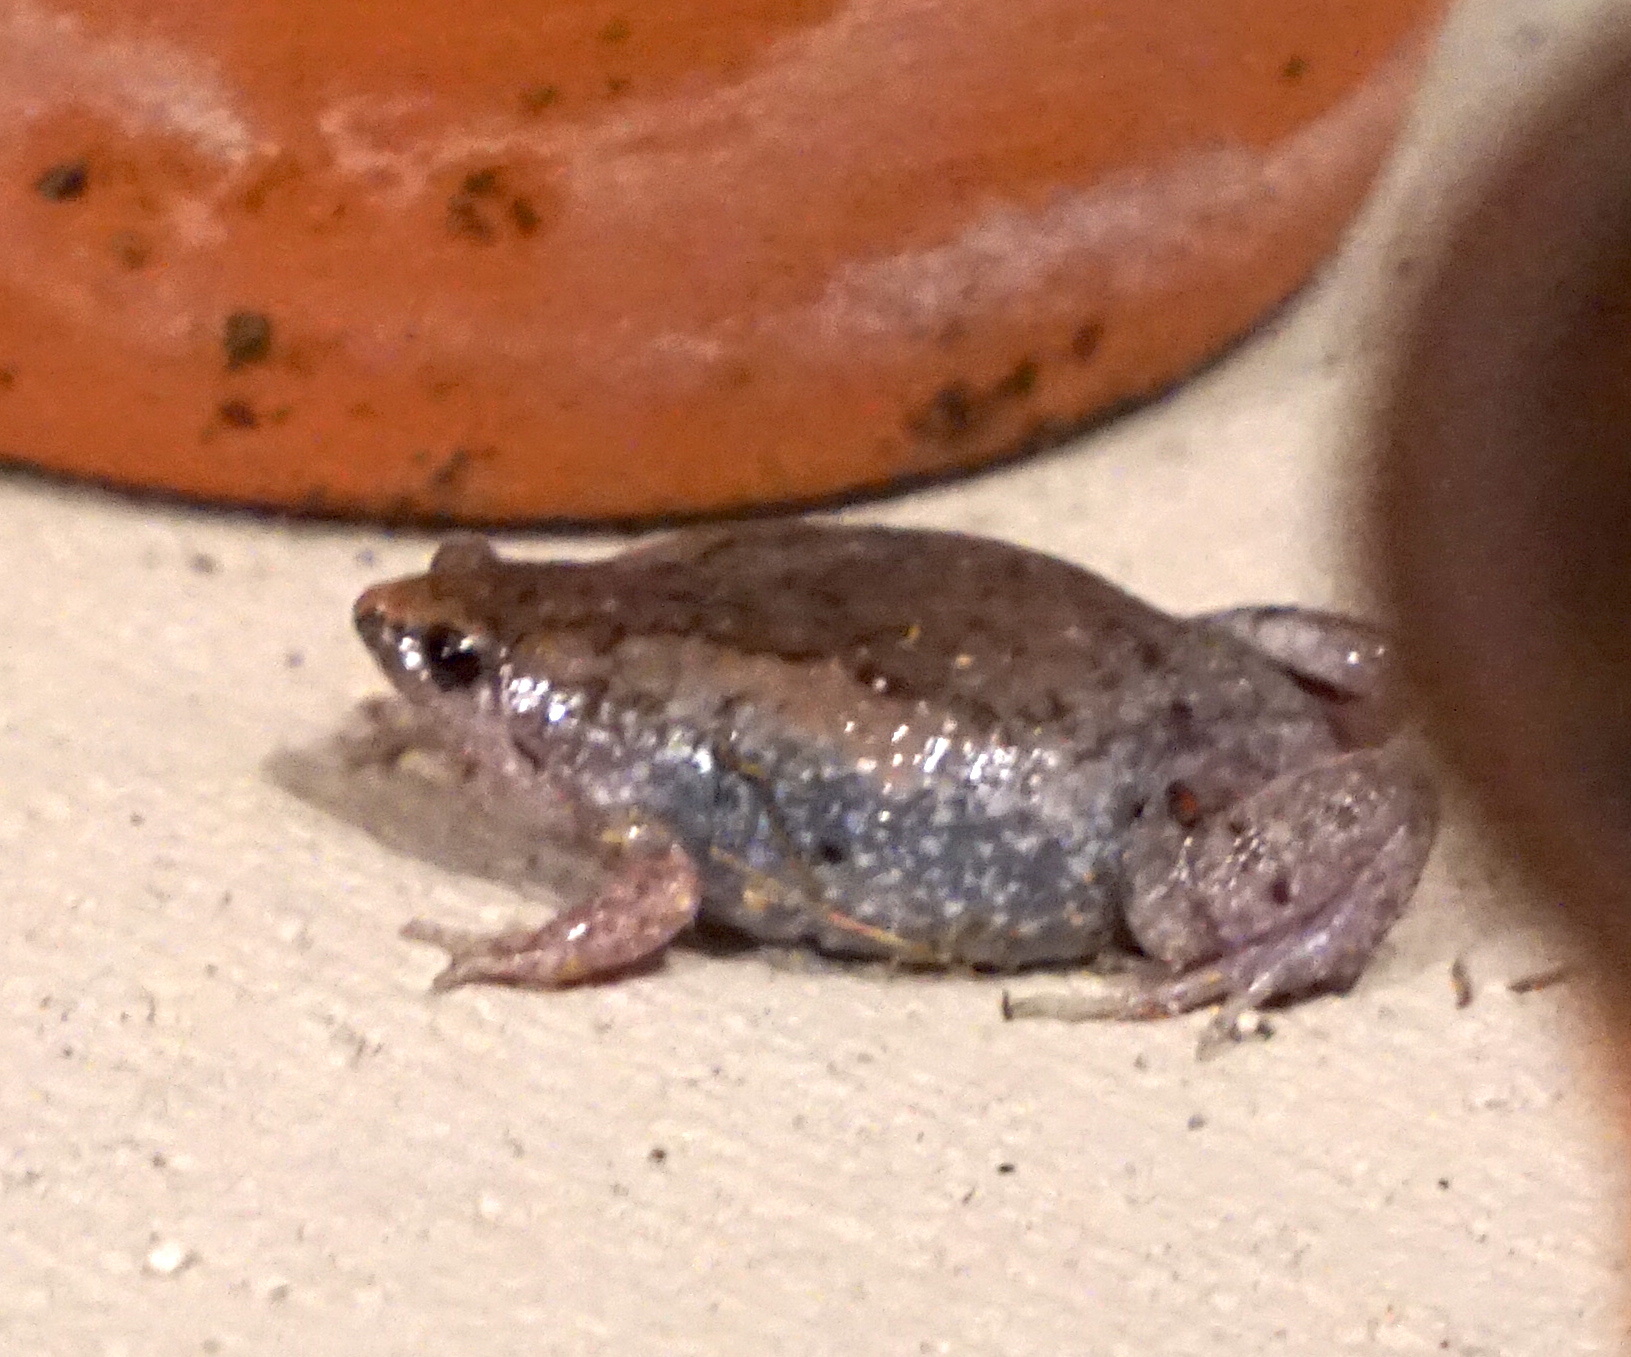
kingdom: Animalia
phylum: Chordata
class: Amphibia
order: Anura
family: Microhylidae
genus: Gastrophryne
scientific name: Gastrophryne carolinensis
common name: Eastern narrowmouth toad
